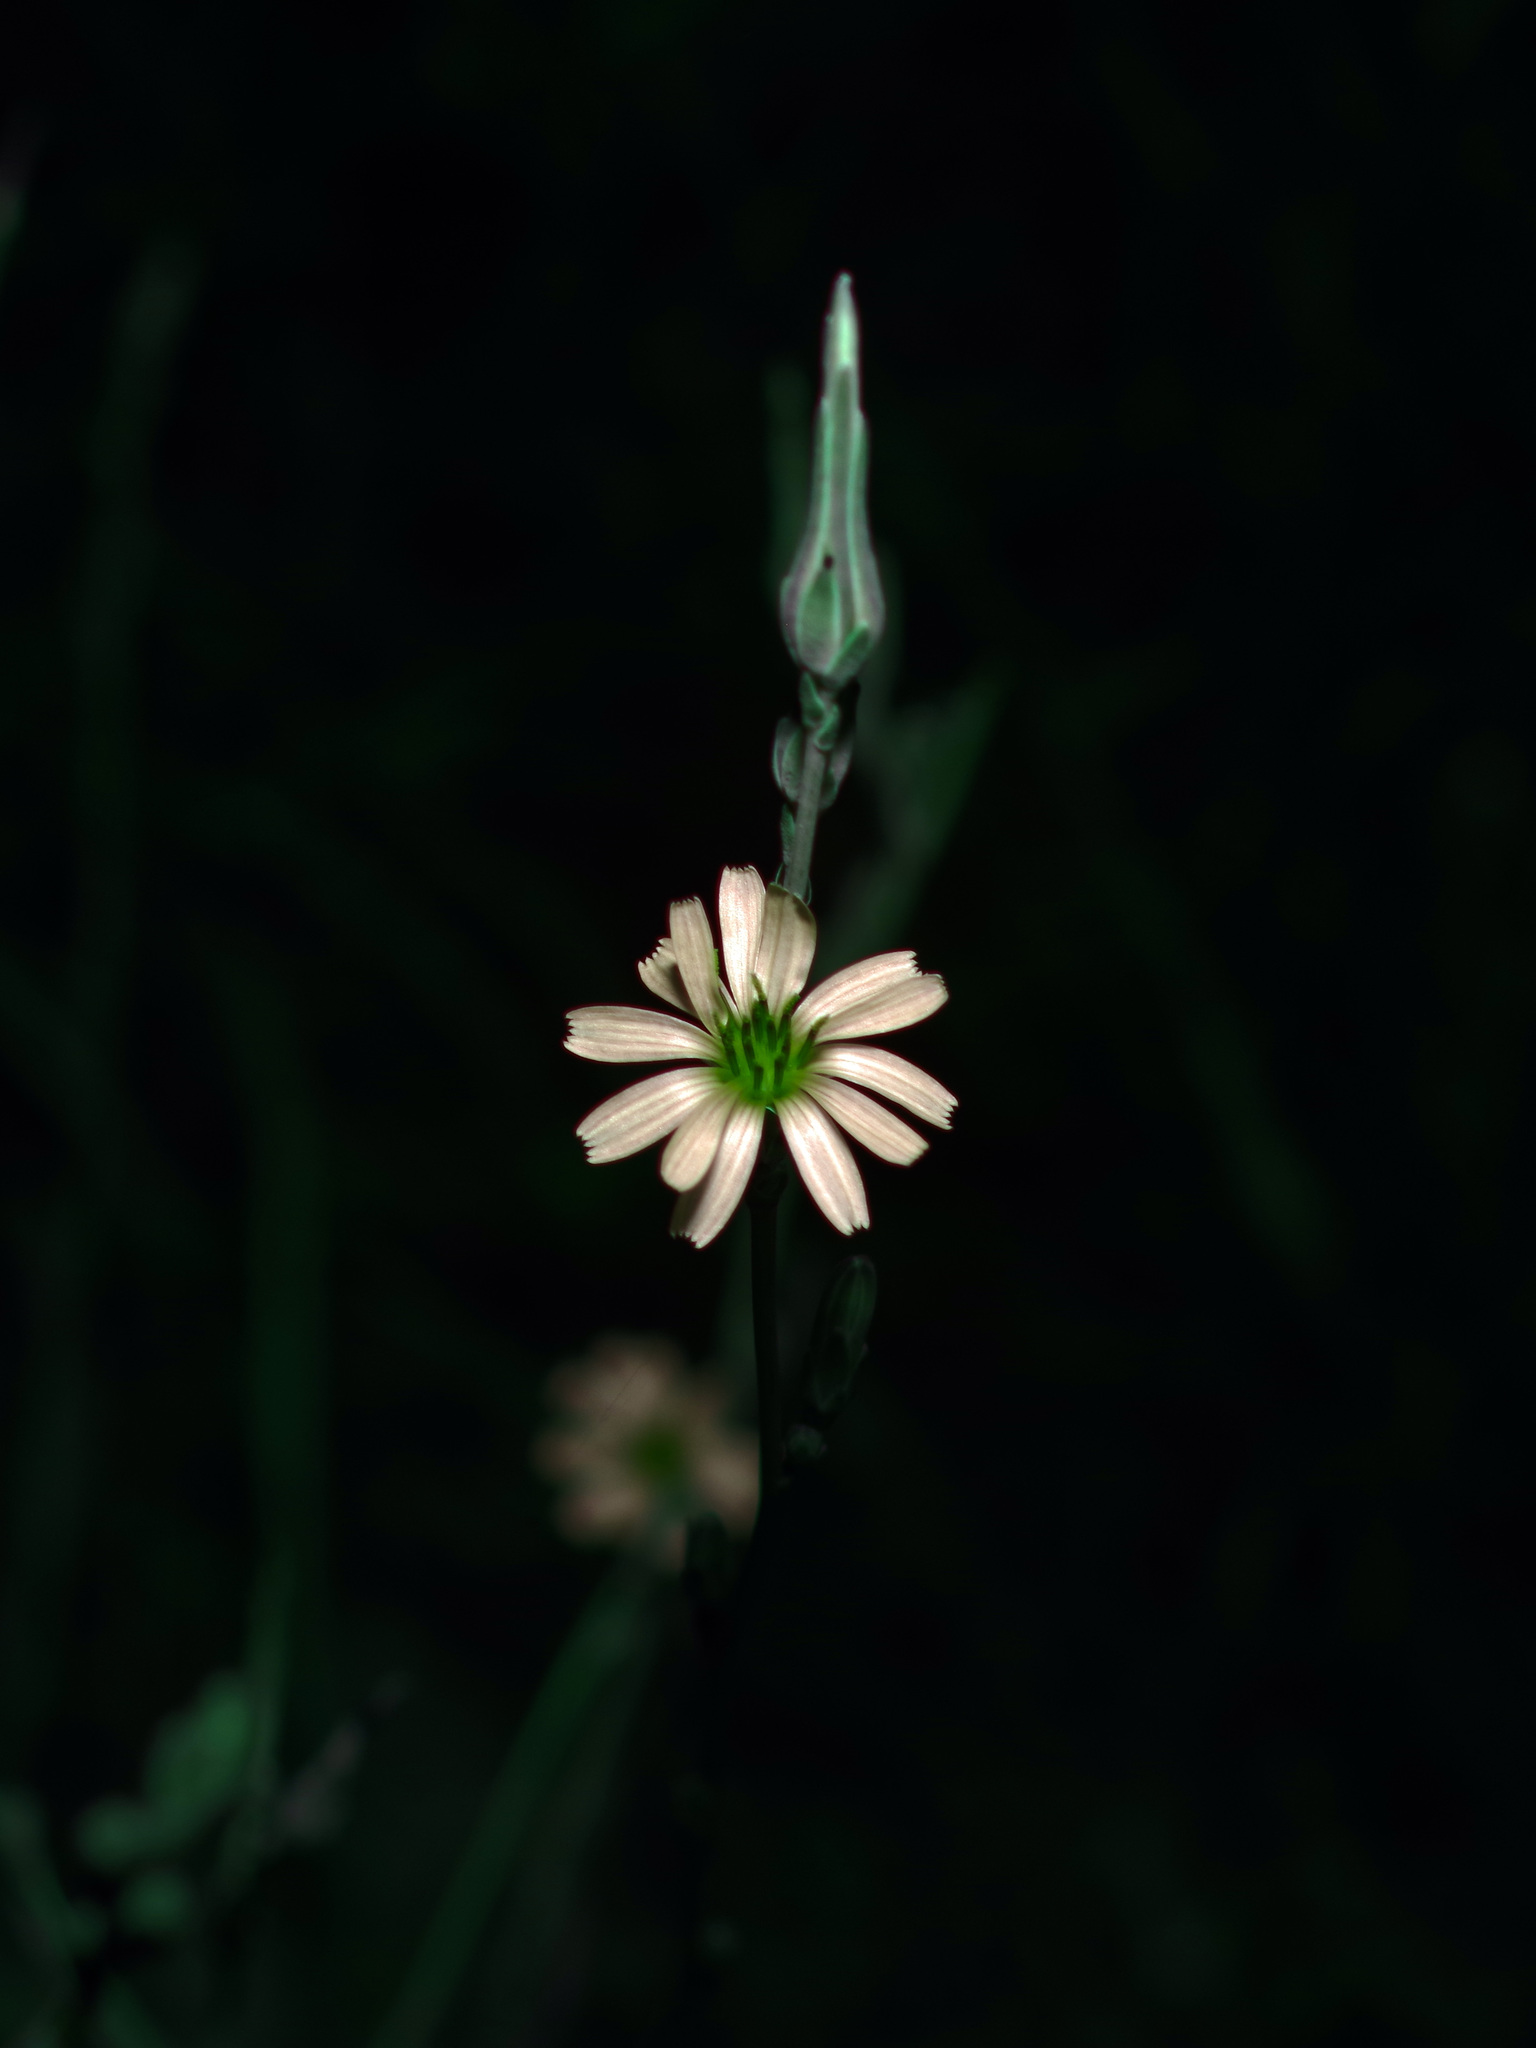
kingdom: Plantae
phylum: Tracheophyta
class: Magnoliopsida
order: Asterales
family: Asteraceae
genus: Lactuca
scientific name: Lactuca saligna
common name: Wild lettuce
